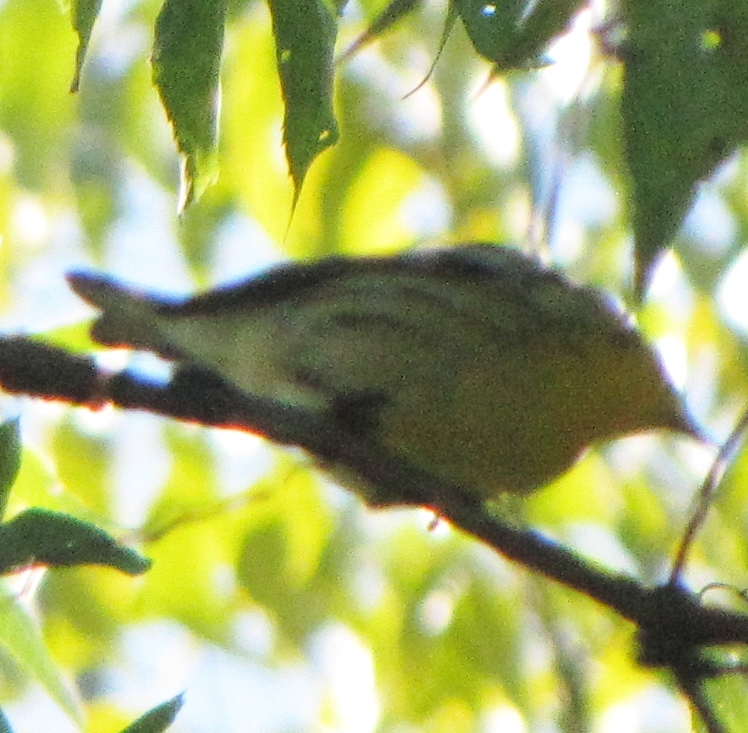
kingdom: Animalia
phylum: Chordata
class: Aves
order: Passeriformes
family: Parulidae
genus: Setophaga
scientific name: Setophaga fusca
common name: Blackburnian warbler
